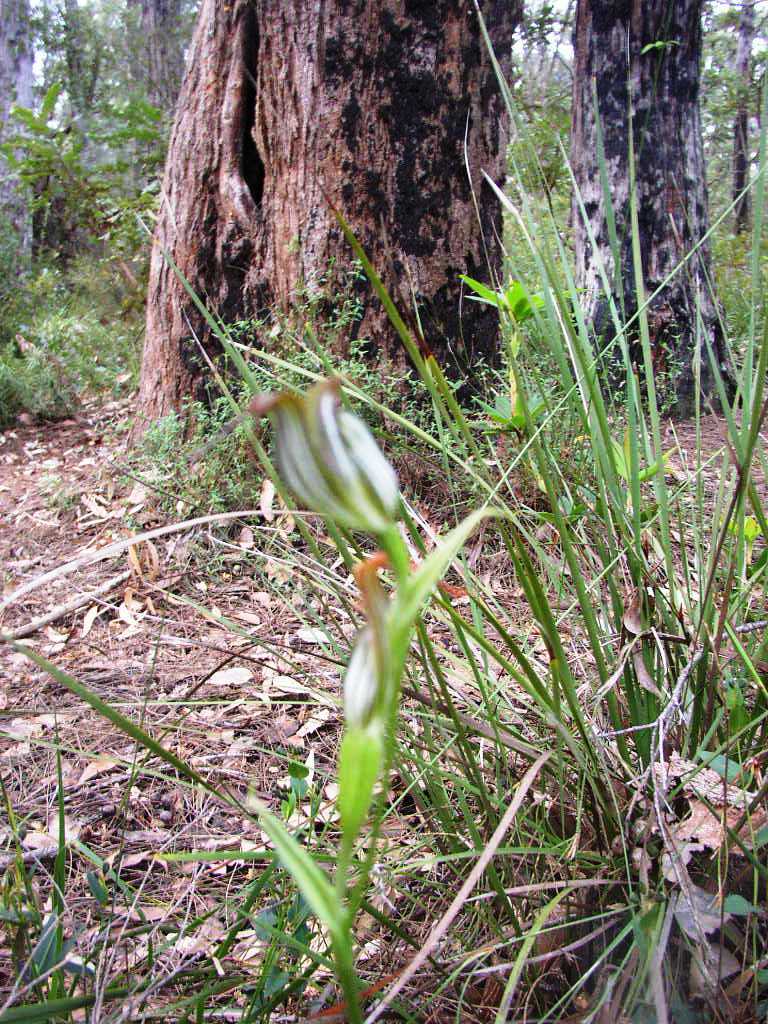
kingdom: Plantae
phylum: Tracheophyta
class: Liliopsida
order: Asparagales
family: Orchidaceae
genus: Pterostylis
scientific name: Pterostylis recurva
